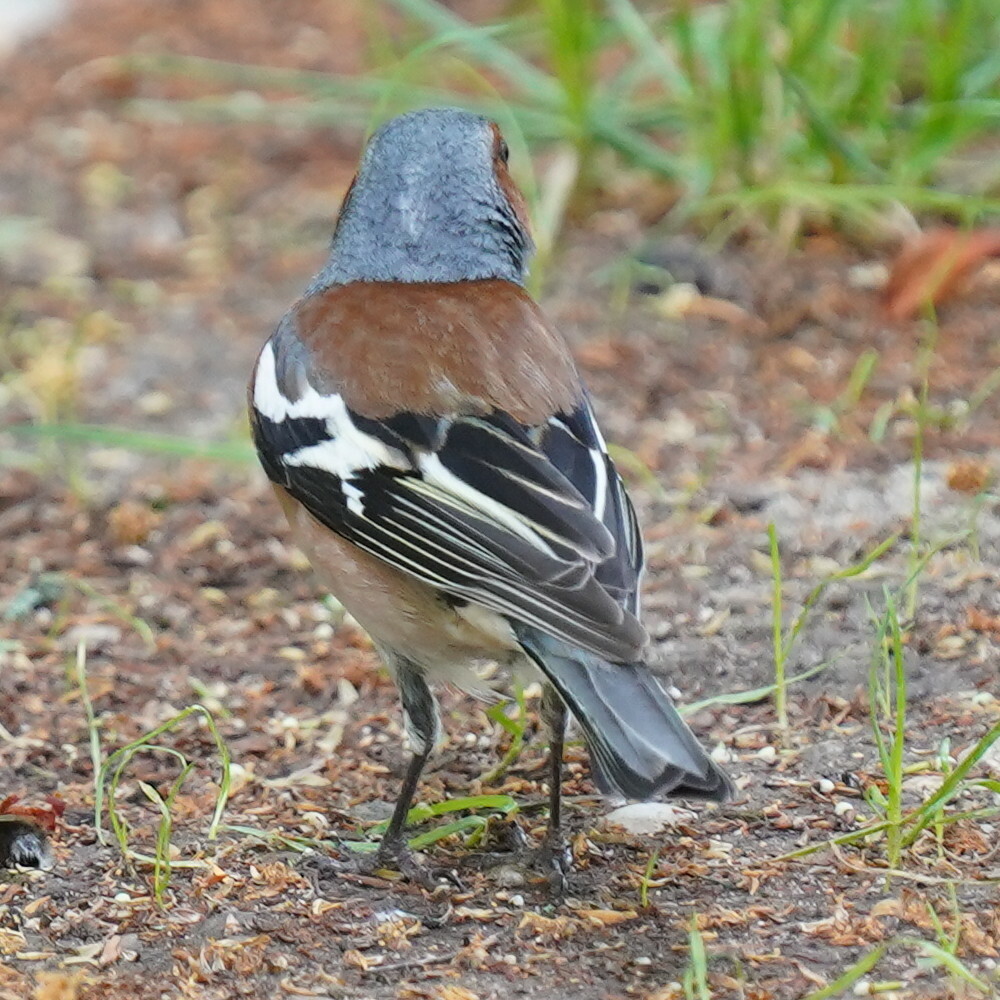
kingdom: Animalia
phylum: Chordata
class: Aves
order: Passeriformes
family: Fringillidae
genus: Fringilla
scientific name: Fringilla coelebs
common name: Common chaffinch
